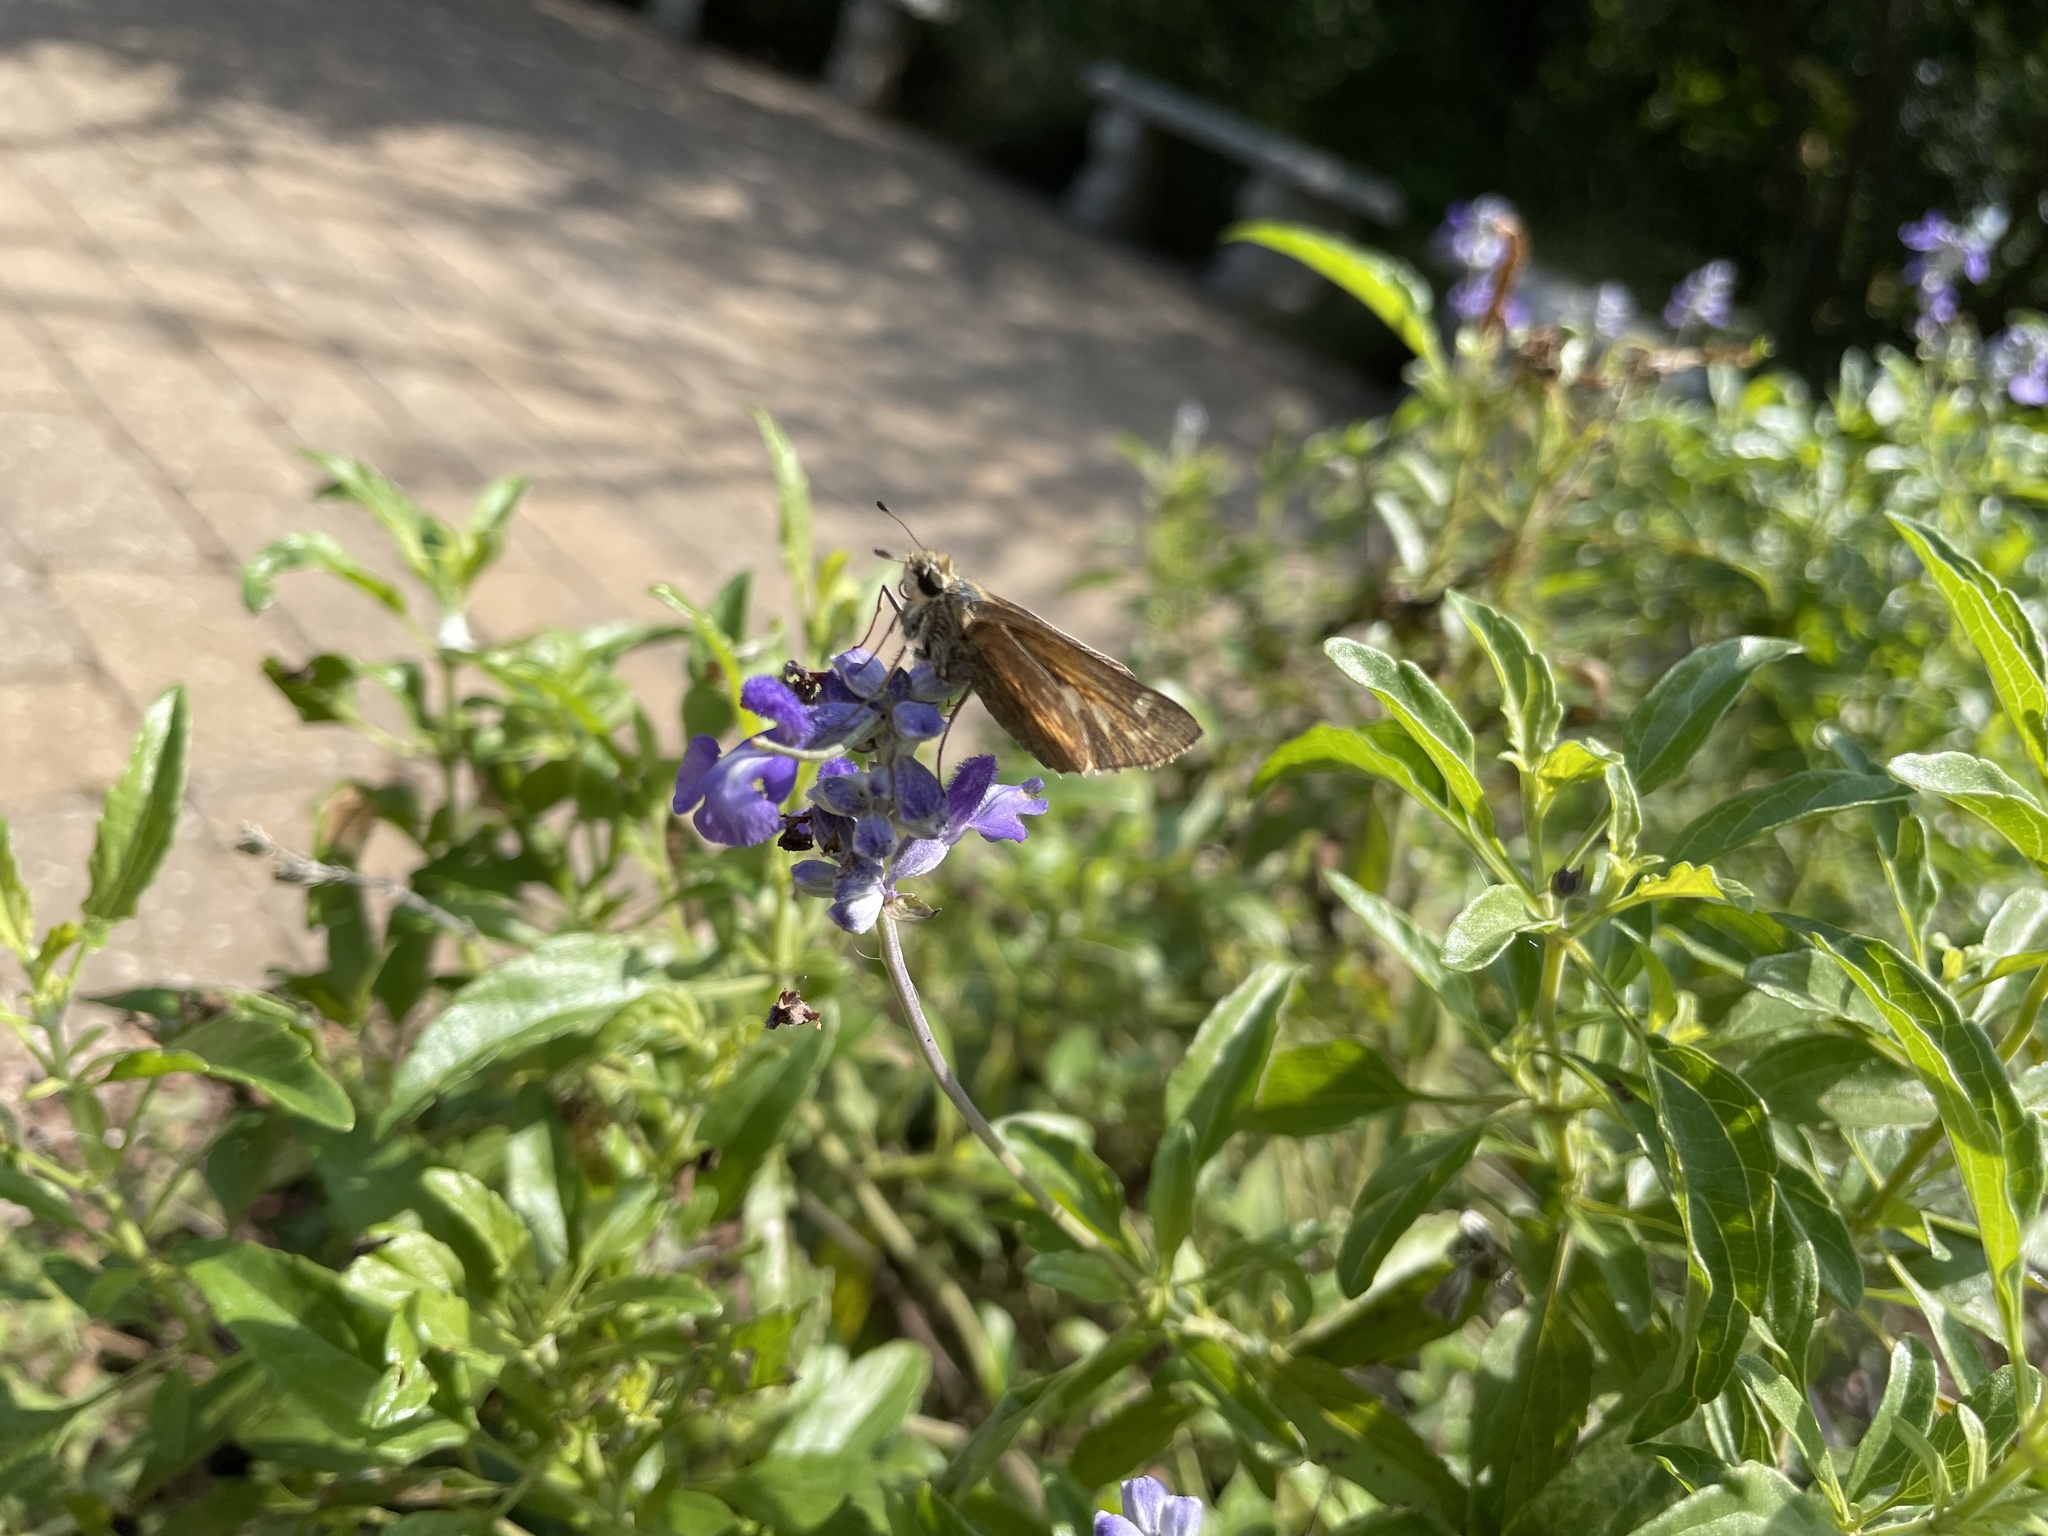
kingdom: Animalia
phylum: Arthropoda
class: Insecta
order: Lepidoptera
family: Hesperiidae
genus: Atalopedes
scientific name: Atalopedes
